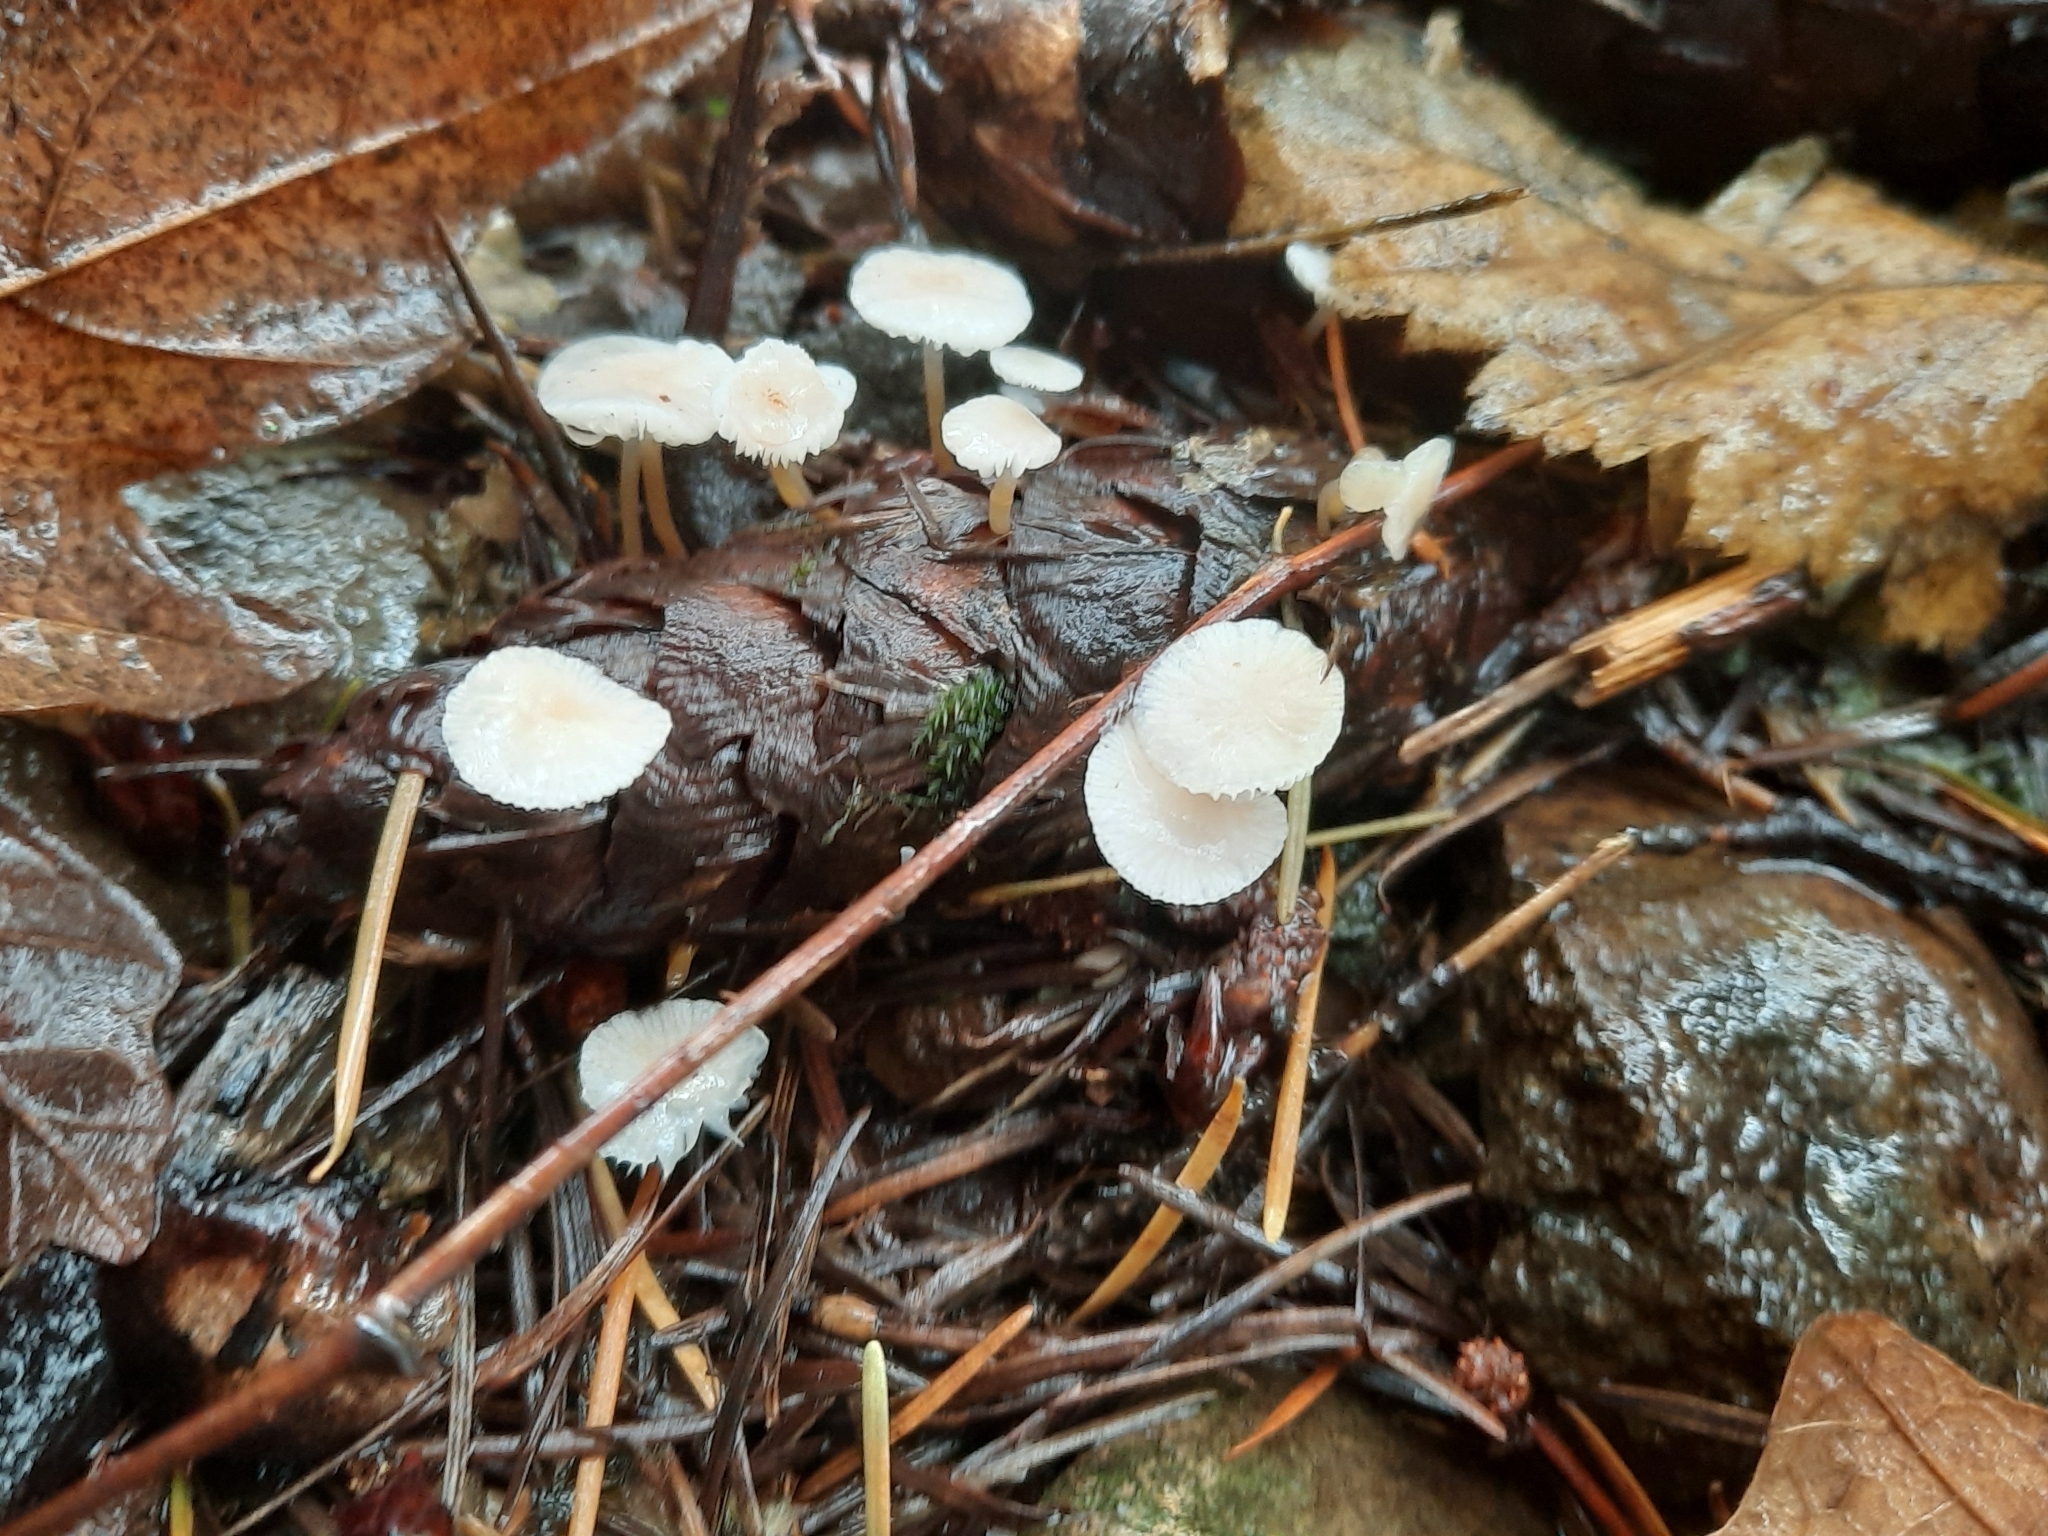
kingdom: Fungi
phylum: Basidiomycota
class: Agaricomycetes
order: Agaricales
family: Physalacriaceae
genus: Strobilurus
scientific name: Strobilurus trullisatus
